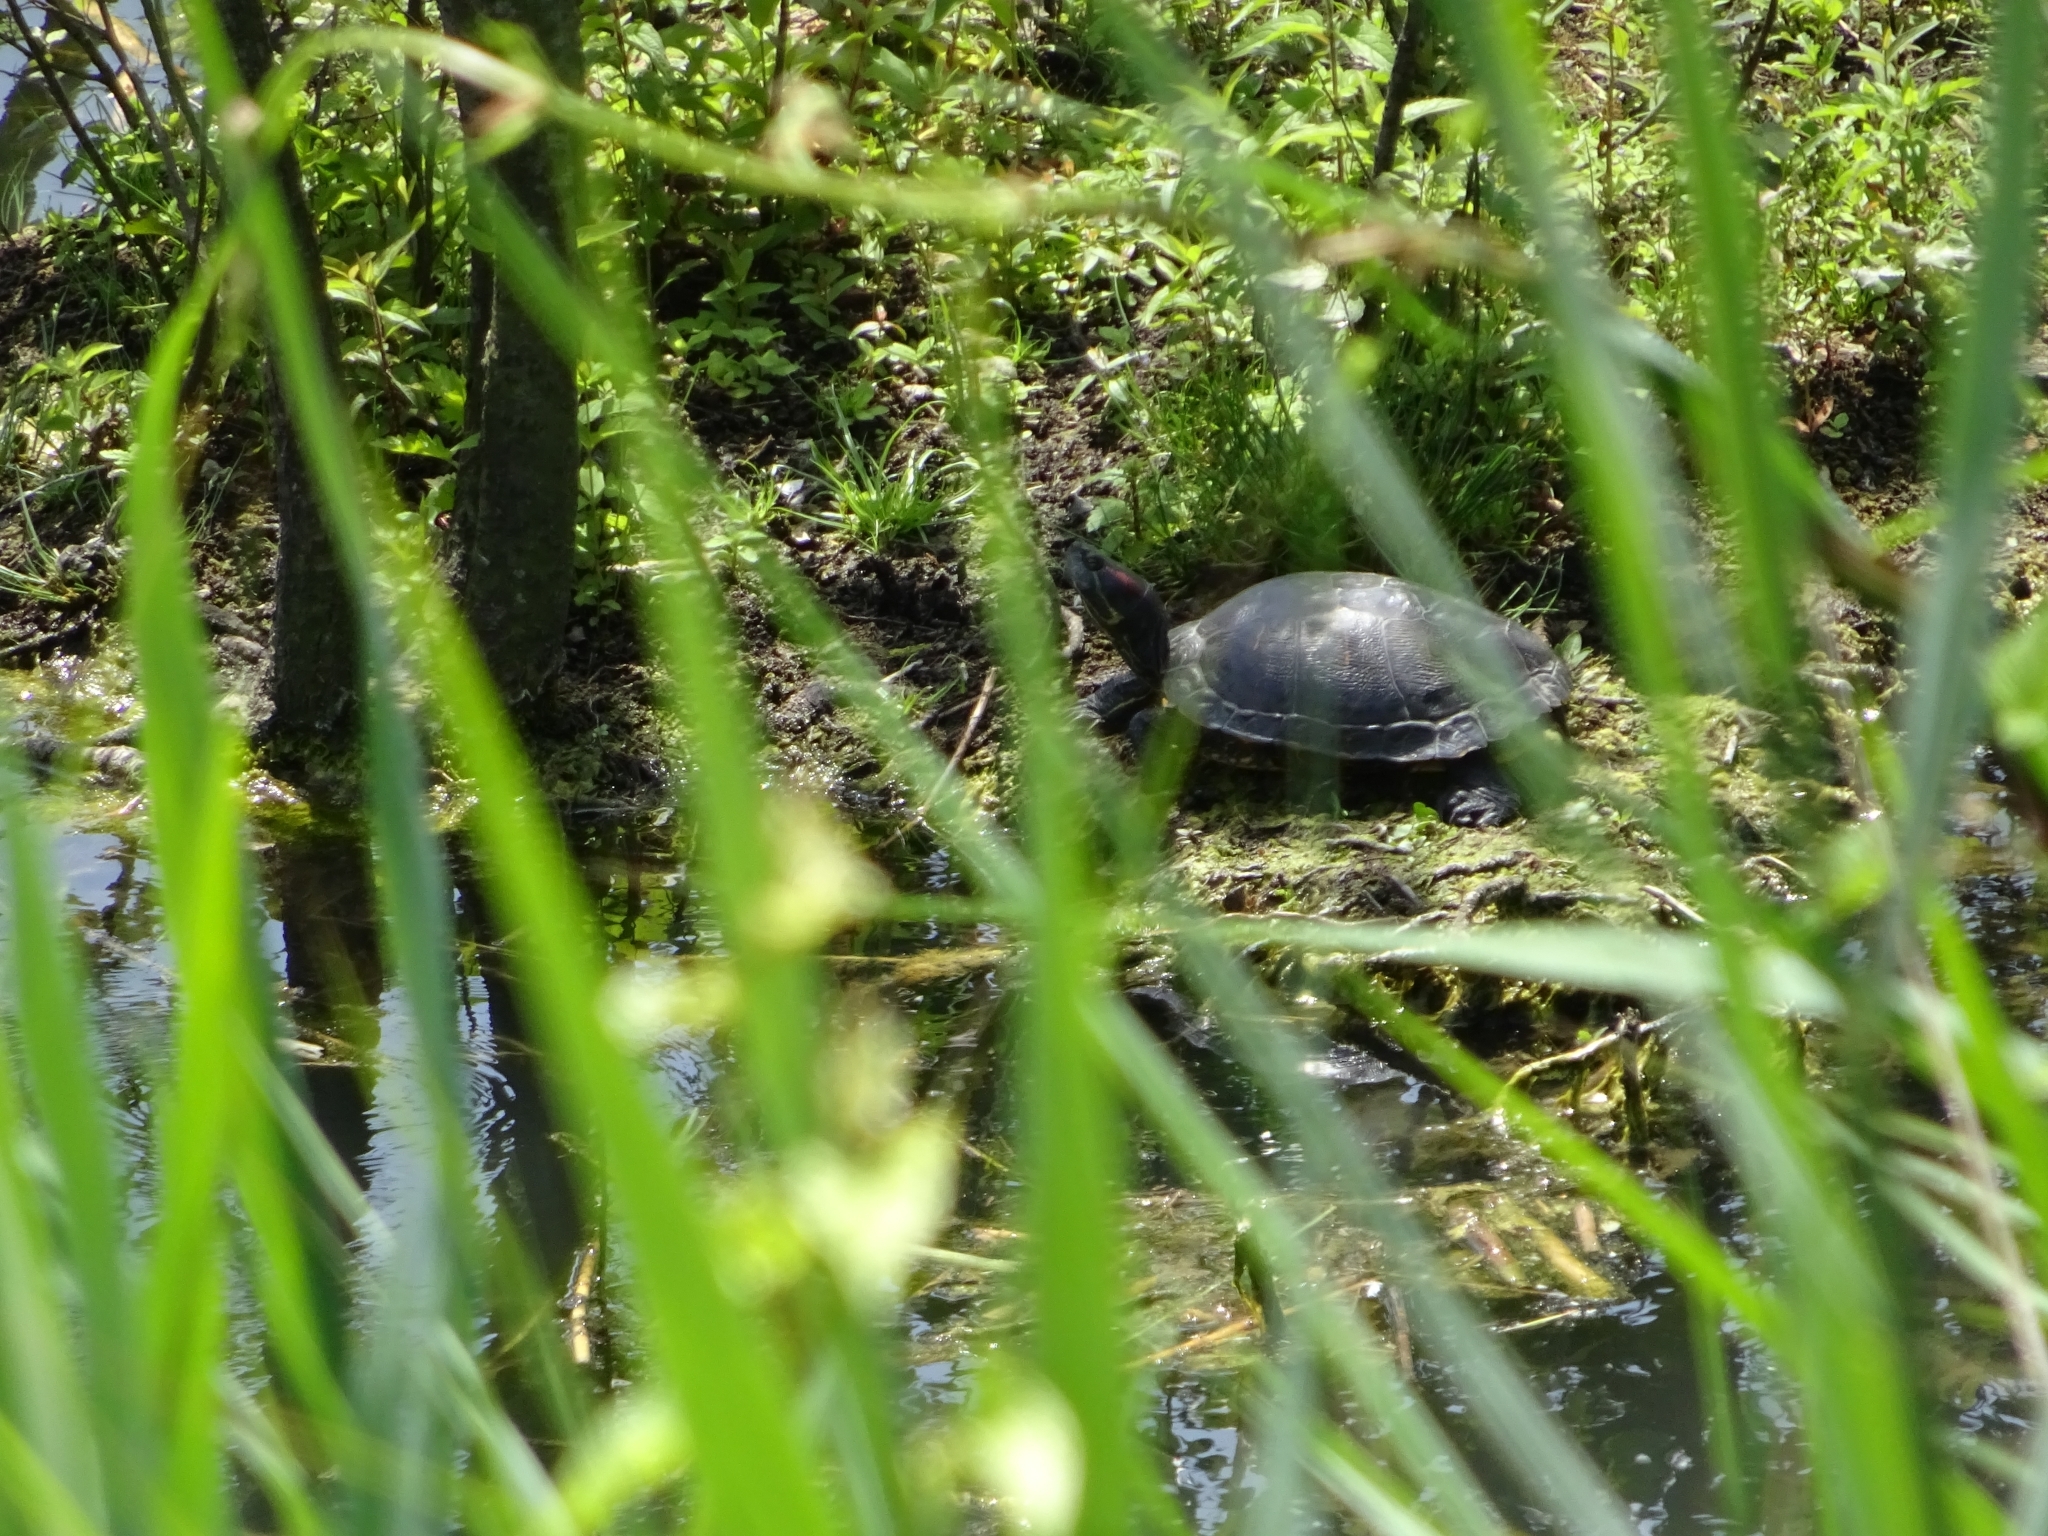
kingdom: Animalia
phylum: Chordata
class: Testudines
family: Emydidae
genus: Trachemys
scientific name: Trachemys scripta
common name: Slider
